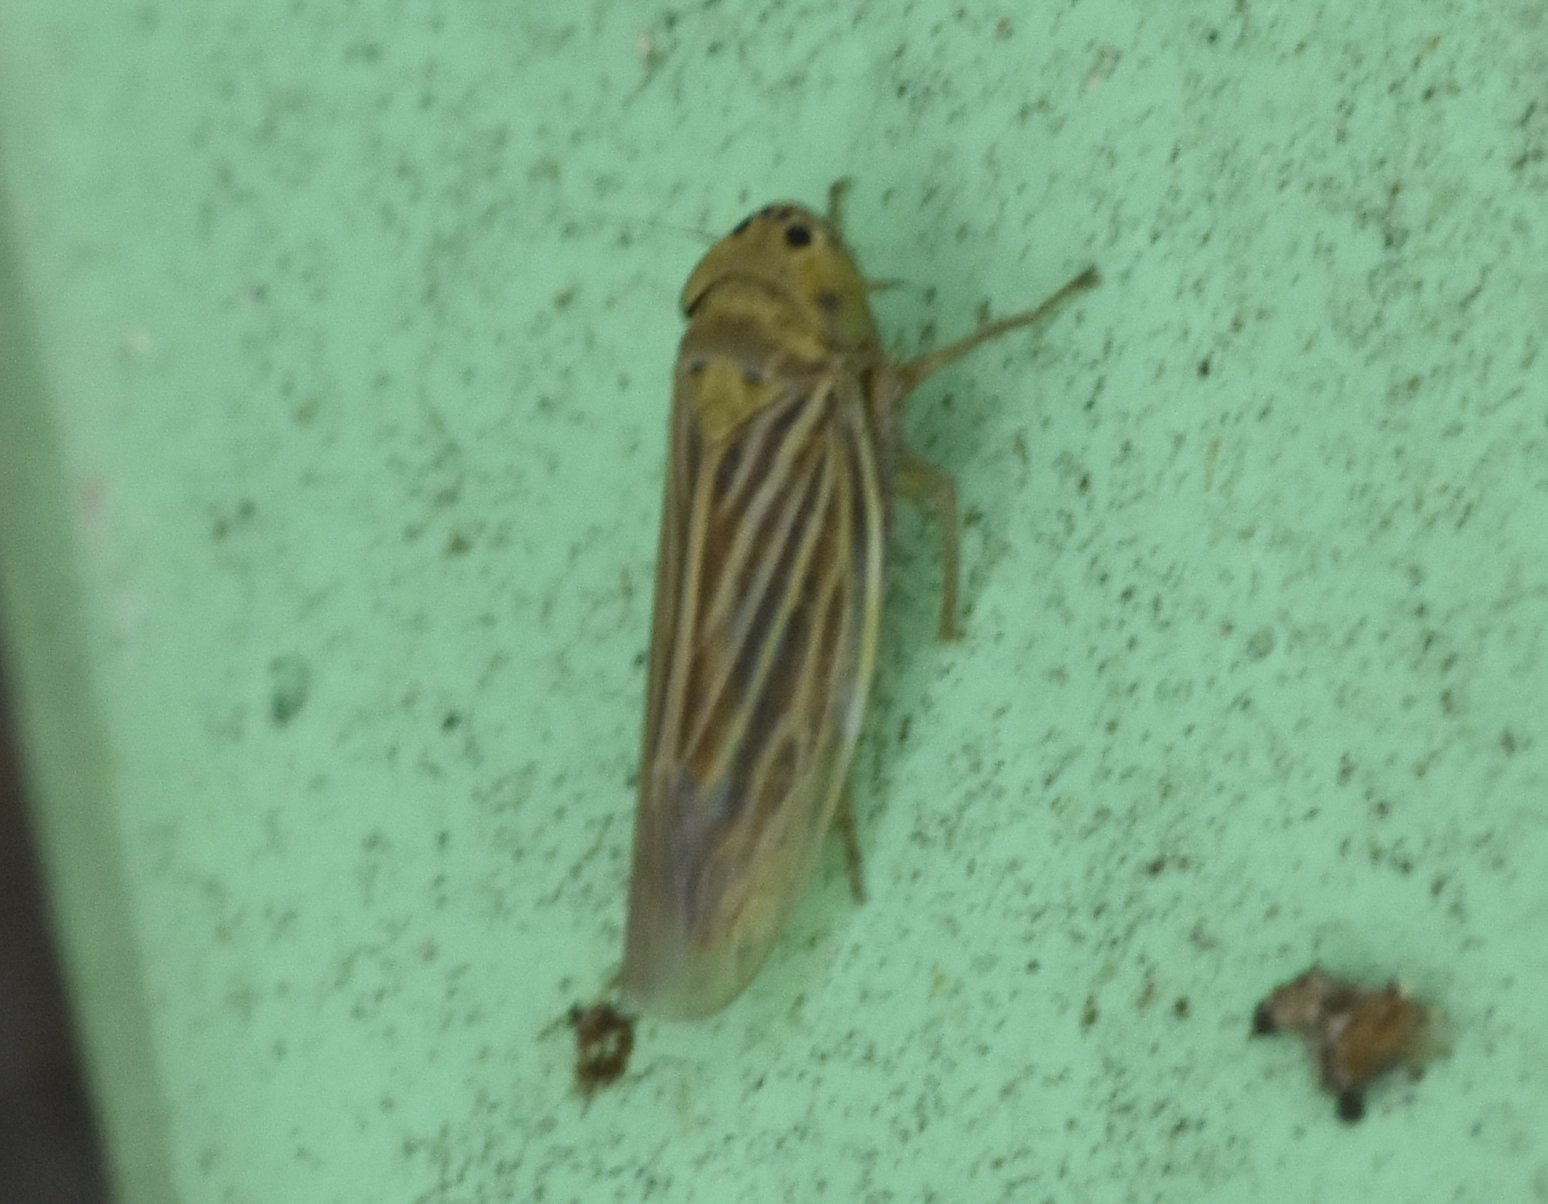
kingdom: Animalia
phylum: Arthropoda
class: Insecta
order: Hemiptera
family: Cicadellidae
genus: Graminella
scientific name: Graminella cognita
